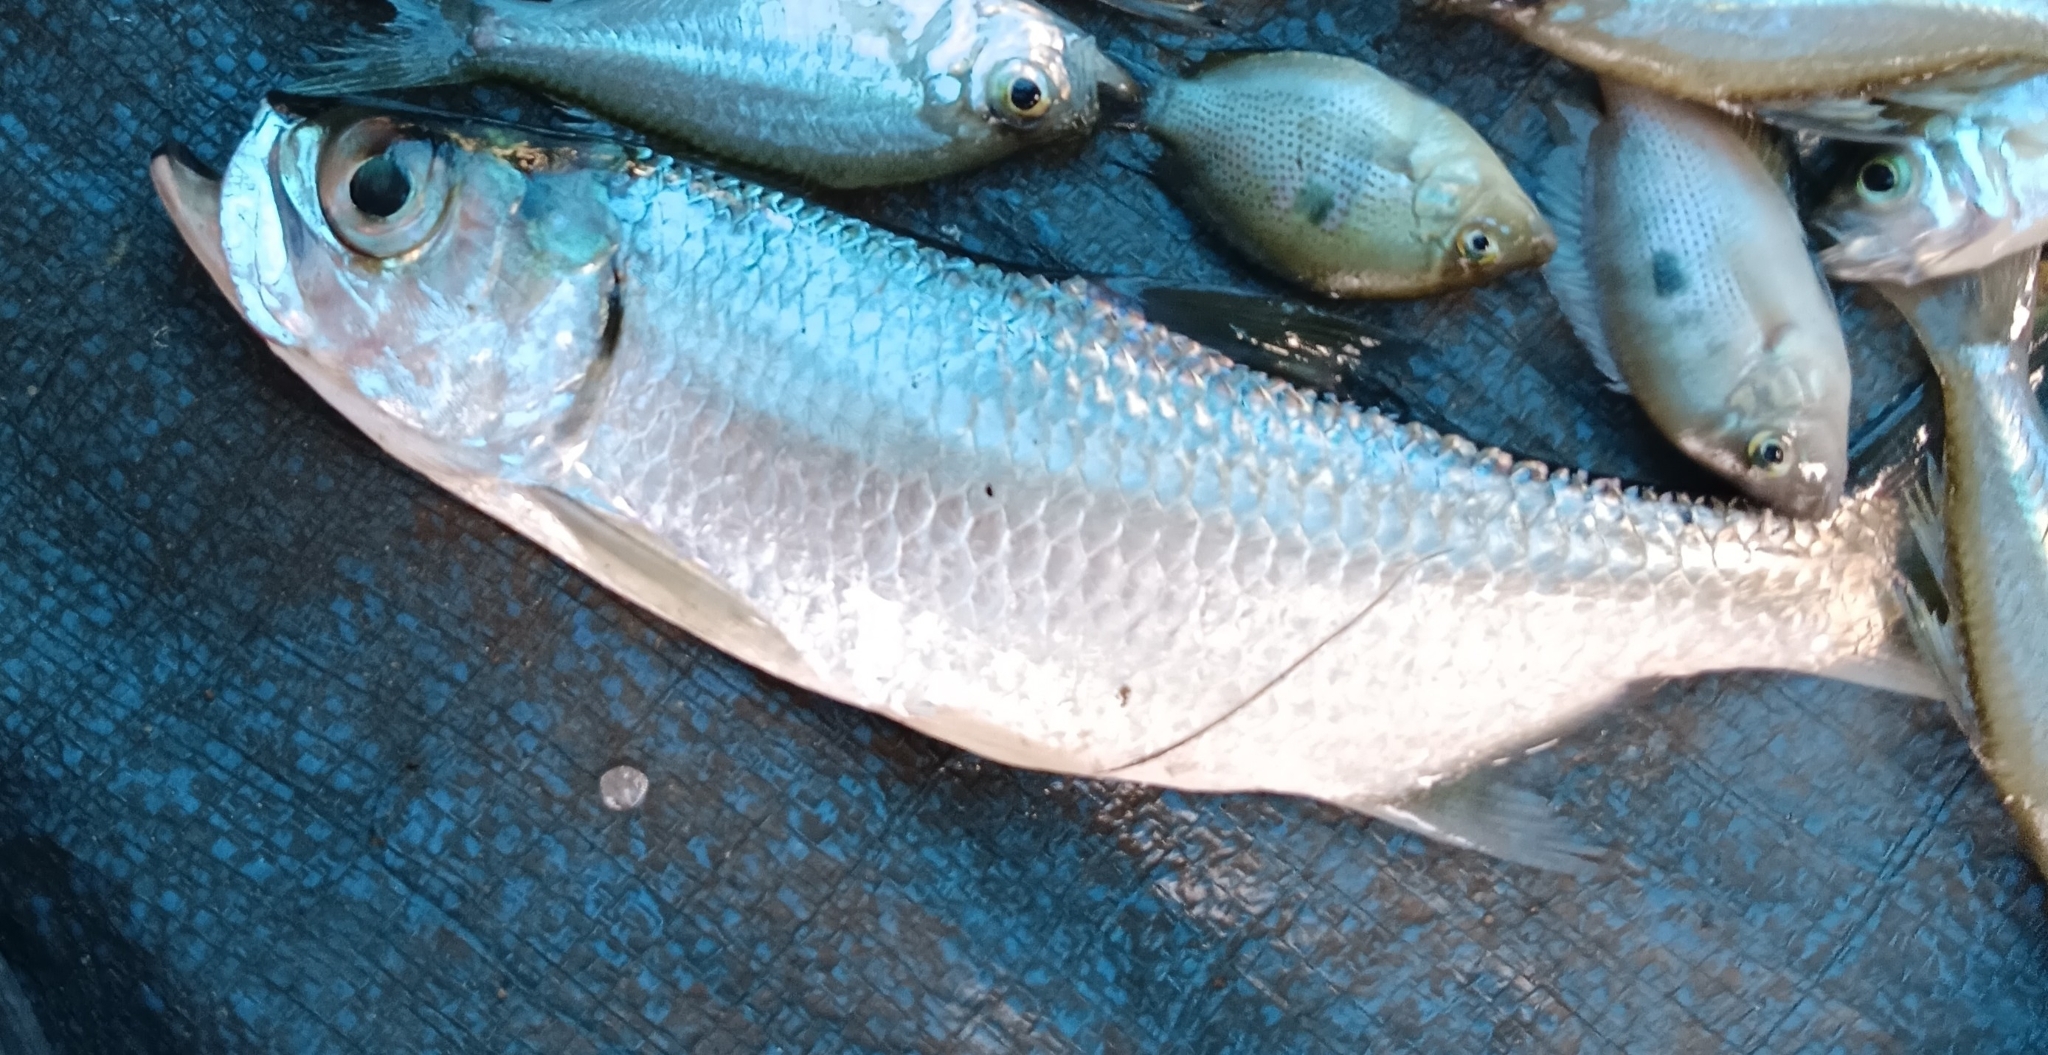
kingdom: Animalia
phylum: Chordata
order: Elopiformes
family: Megalopidae
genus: Megalops
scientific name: Megalops cyprinoides
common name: Indo-pacific tarpon
